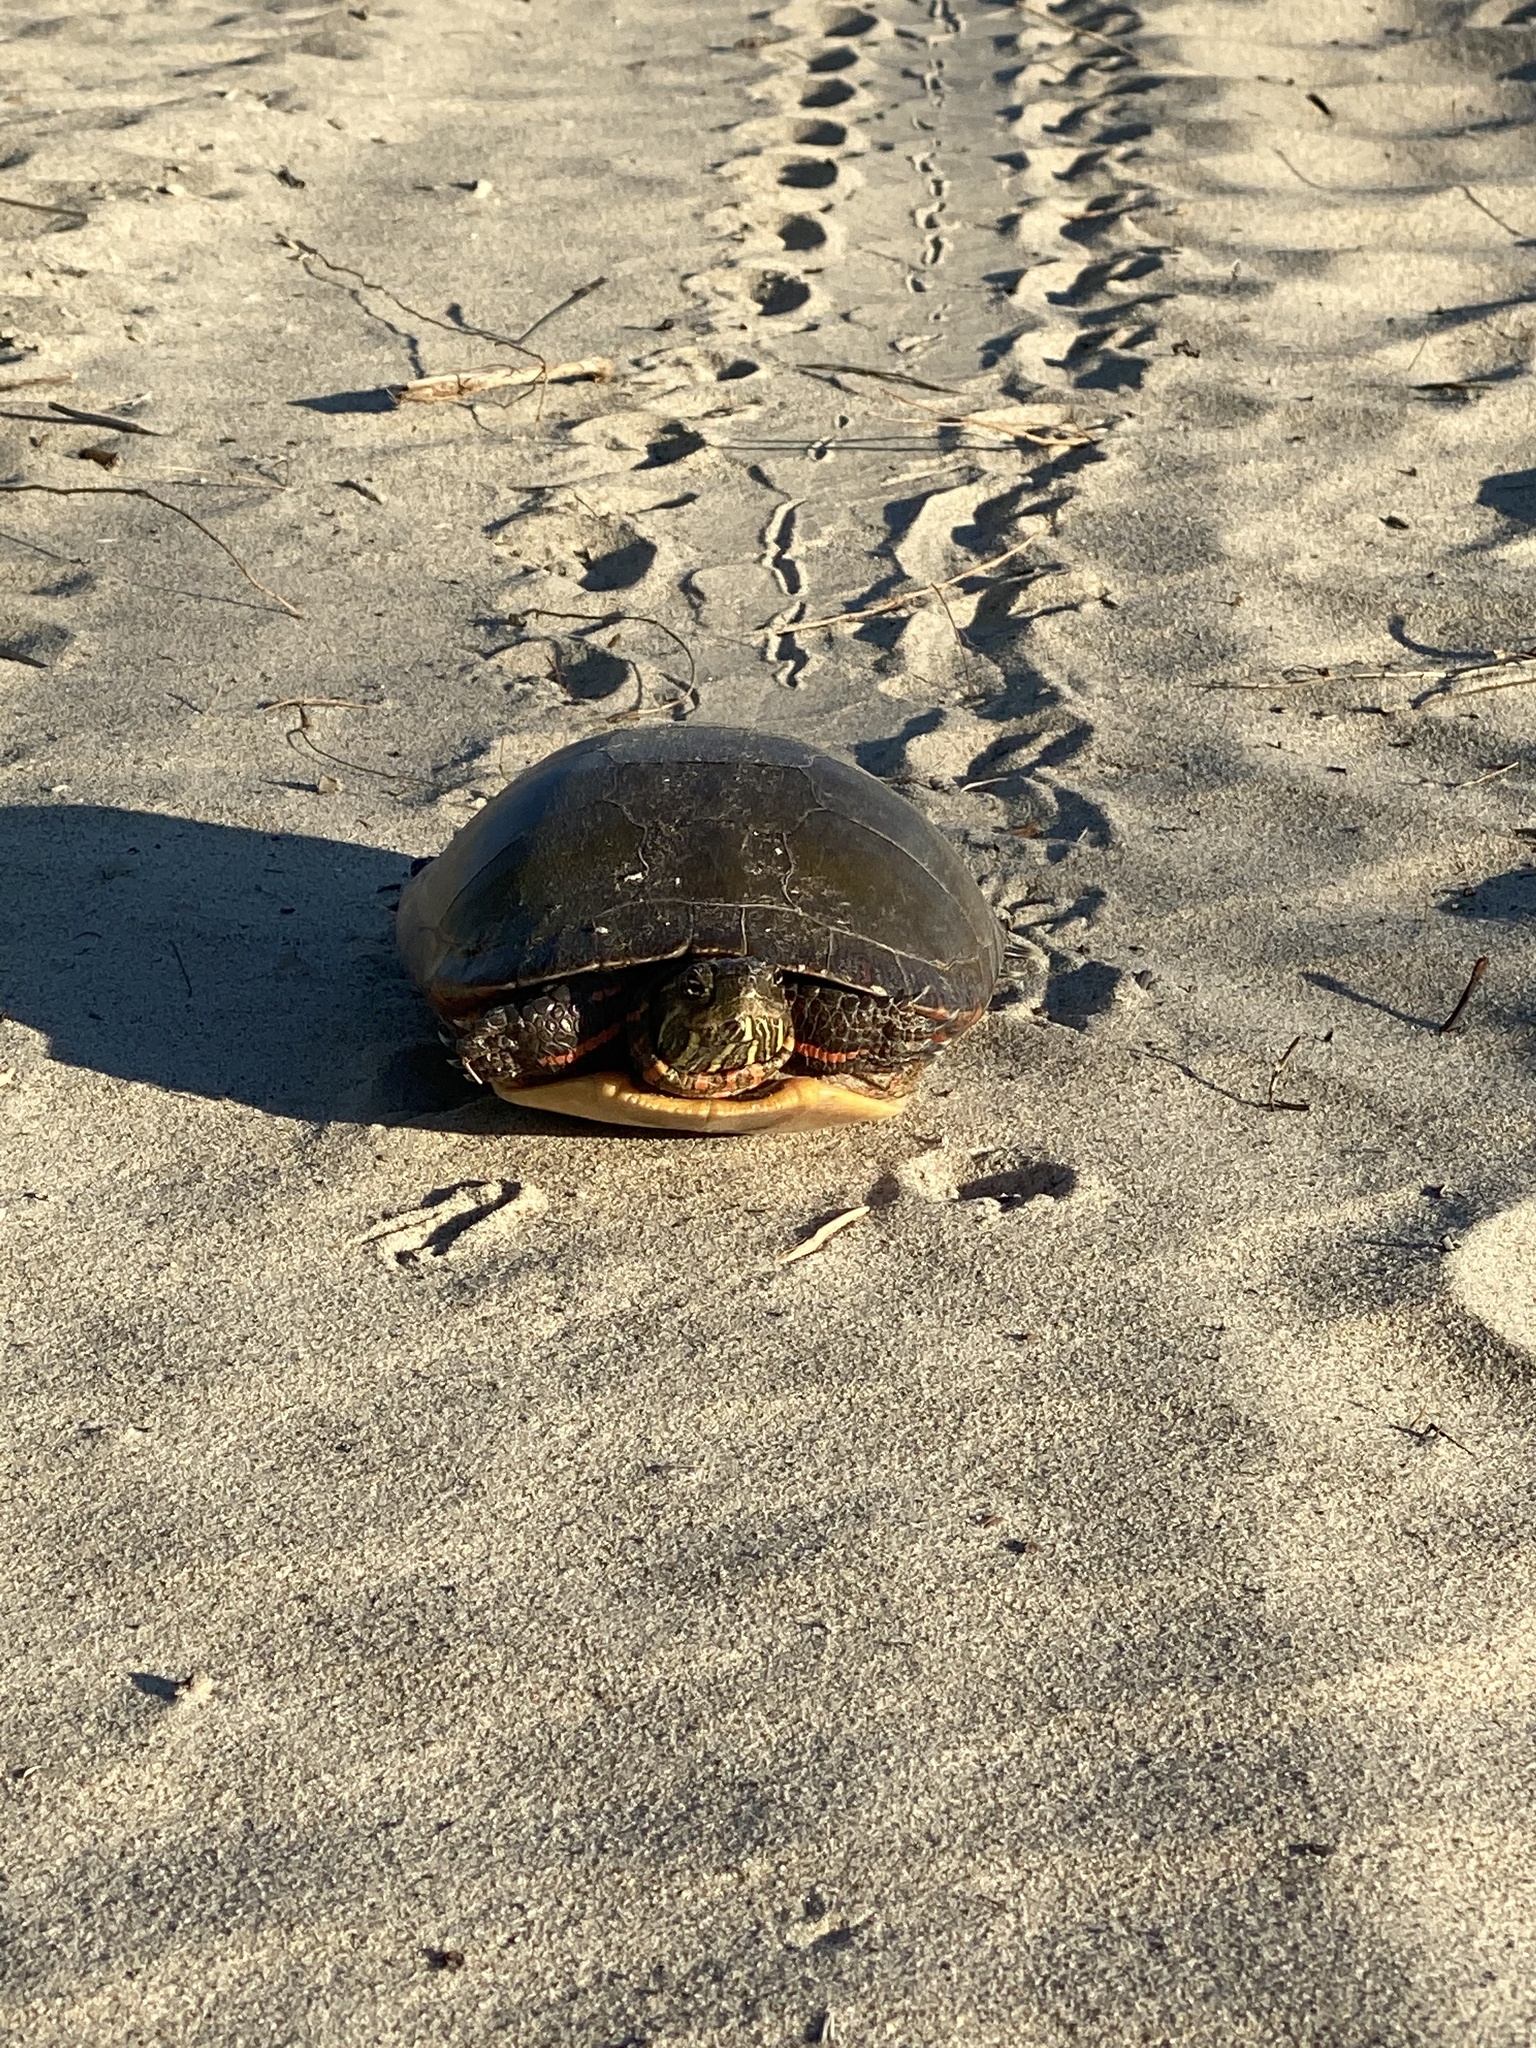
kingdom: Animalia
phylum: Chordata
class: Testudines
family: Emydidae
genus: Chrysemys
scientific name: Chrysemys picta
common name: Painted turtle
